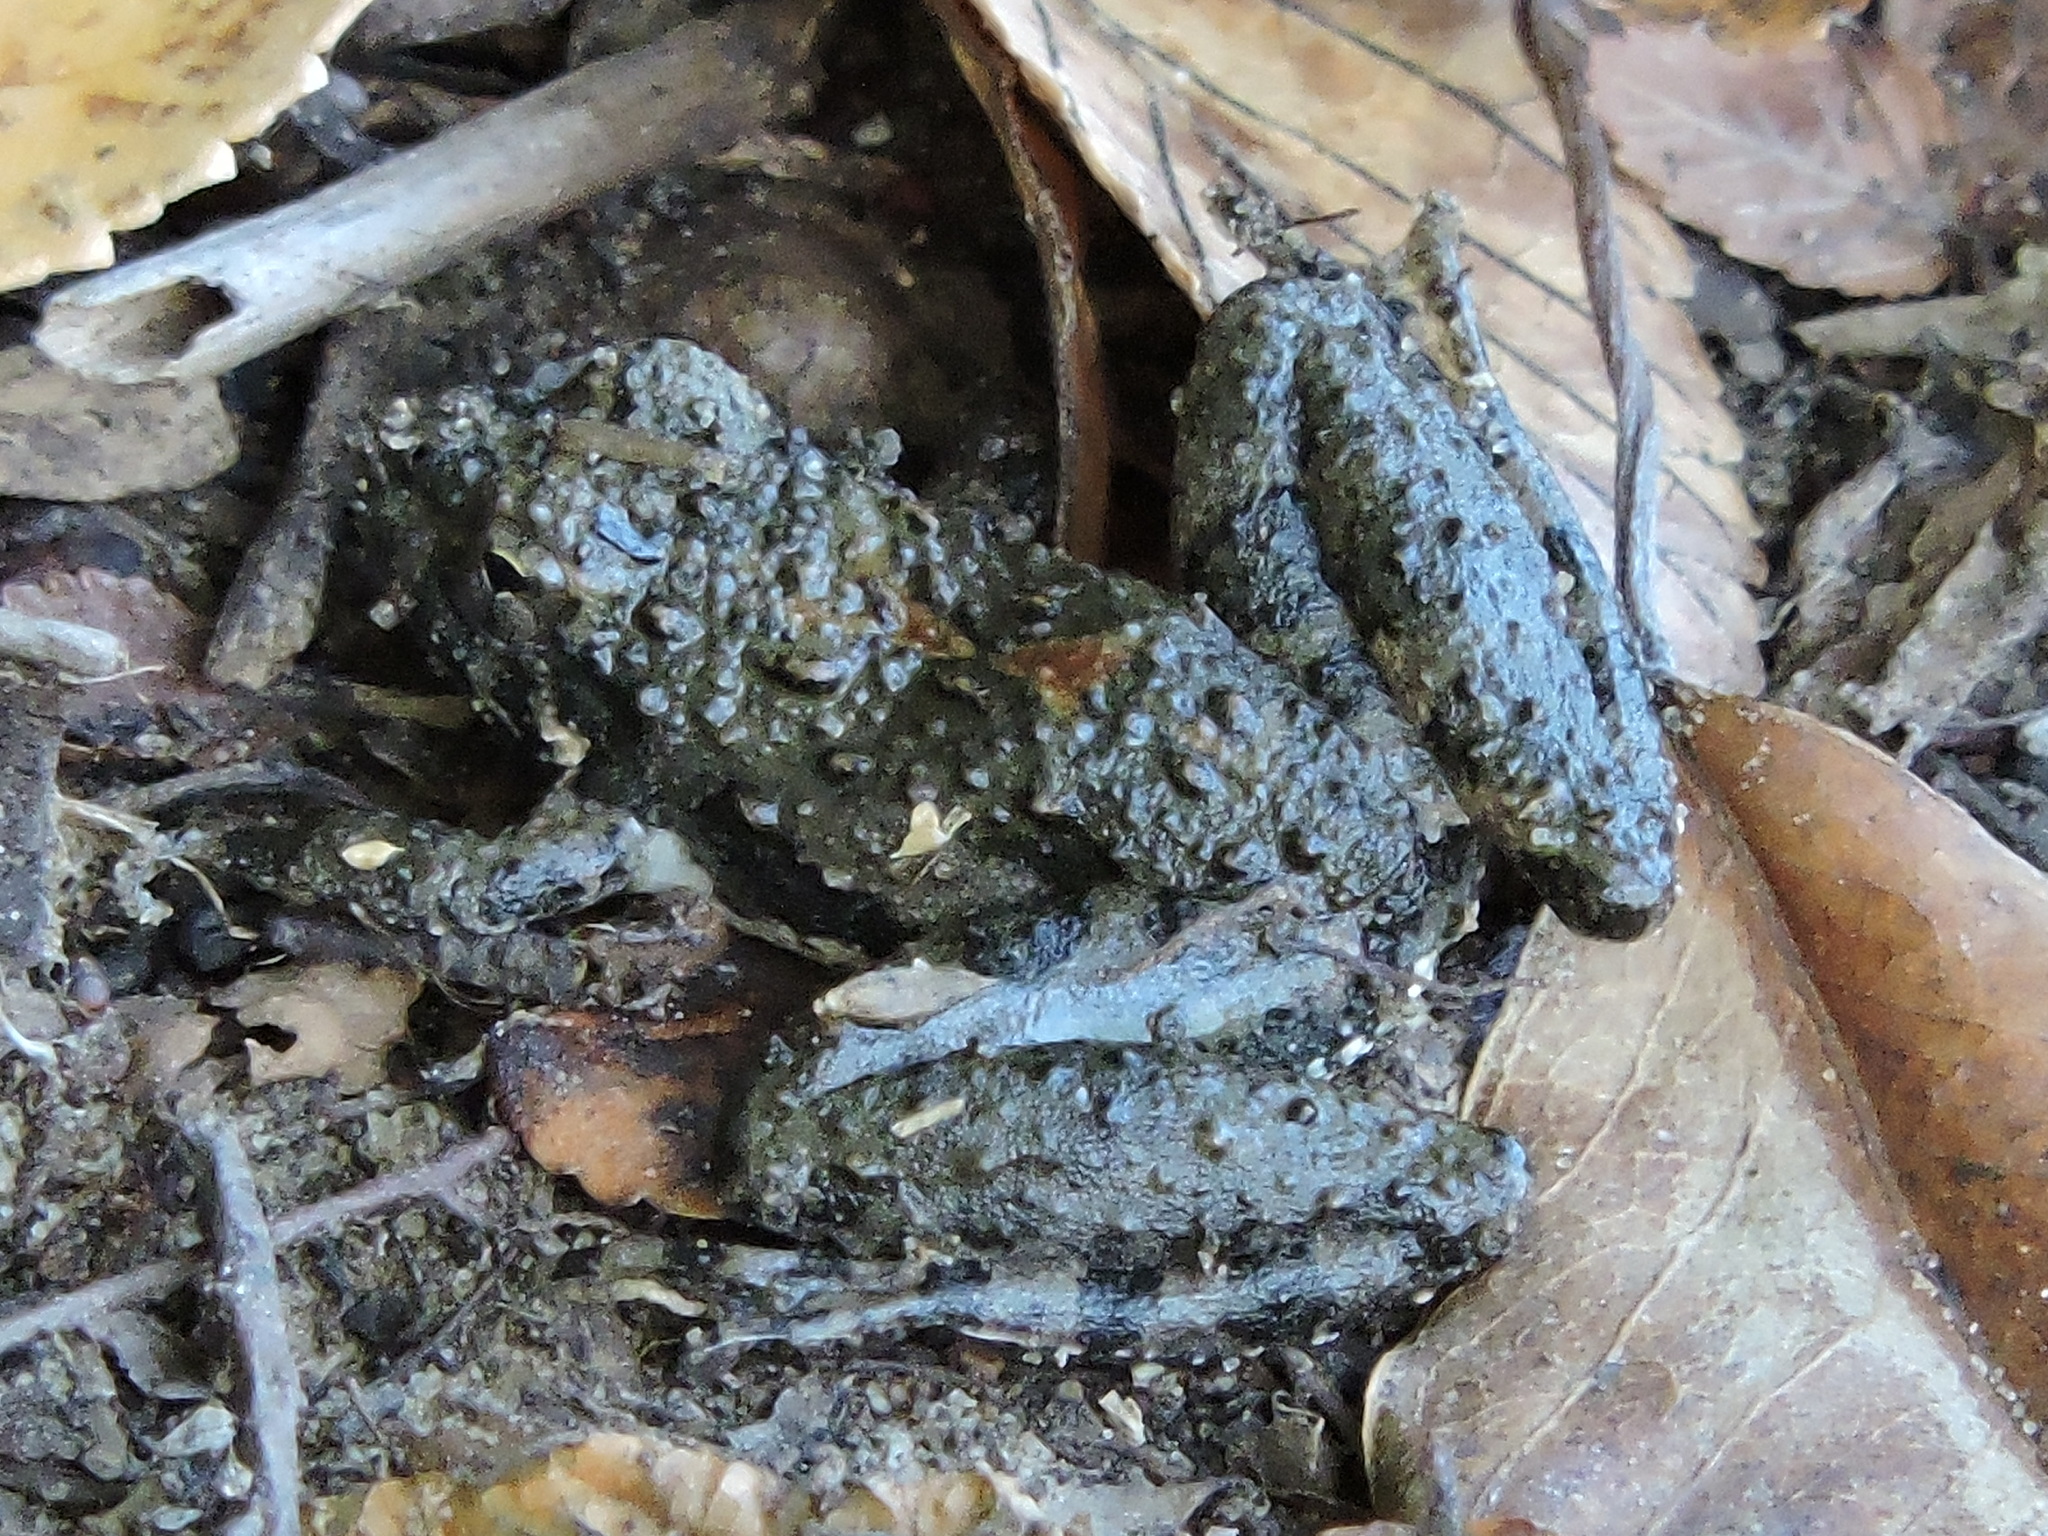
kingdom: Animalia
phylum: Chordata
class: Amphibia
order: Anura
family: Hylidae
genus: Acris
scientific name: Acris blanchardi
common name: Blanchard's cricket frog
